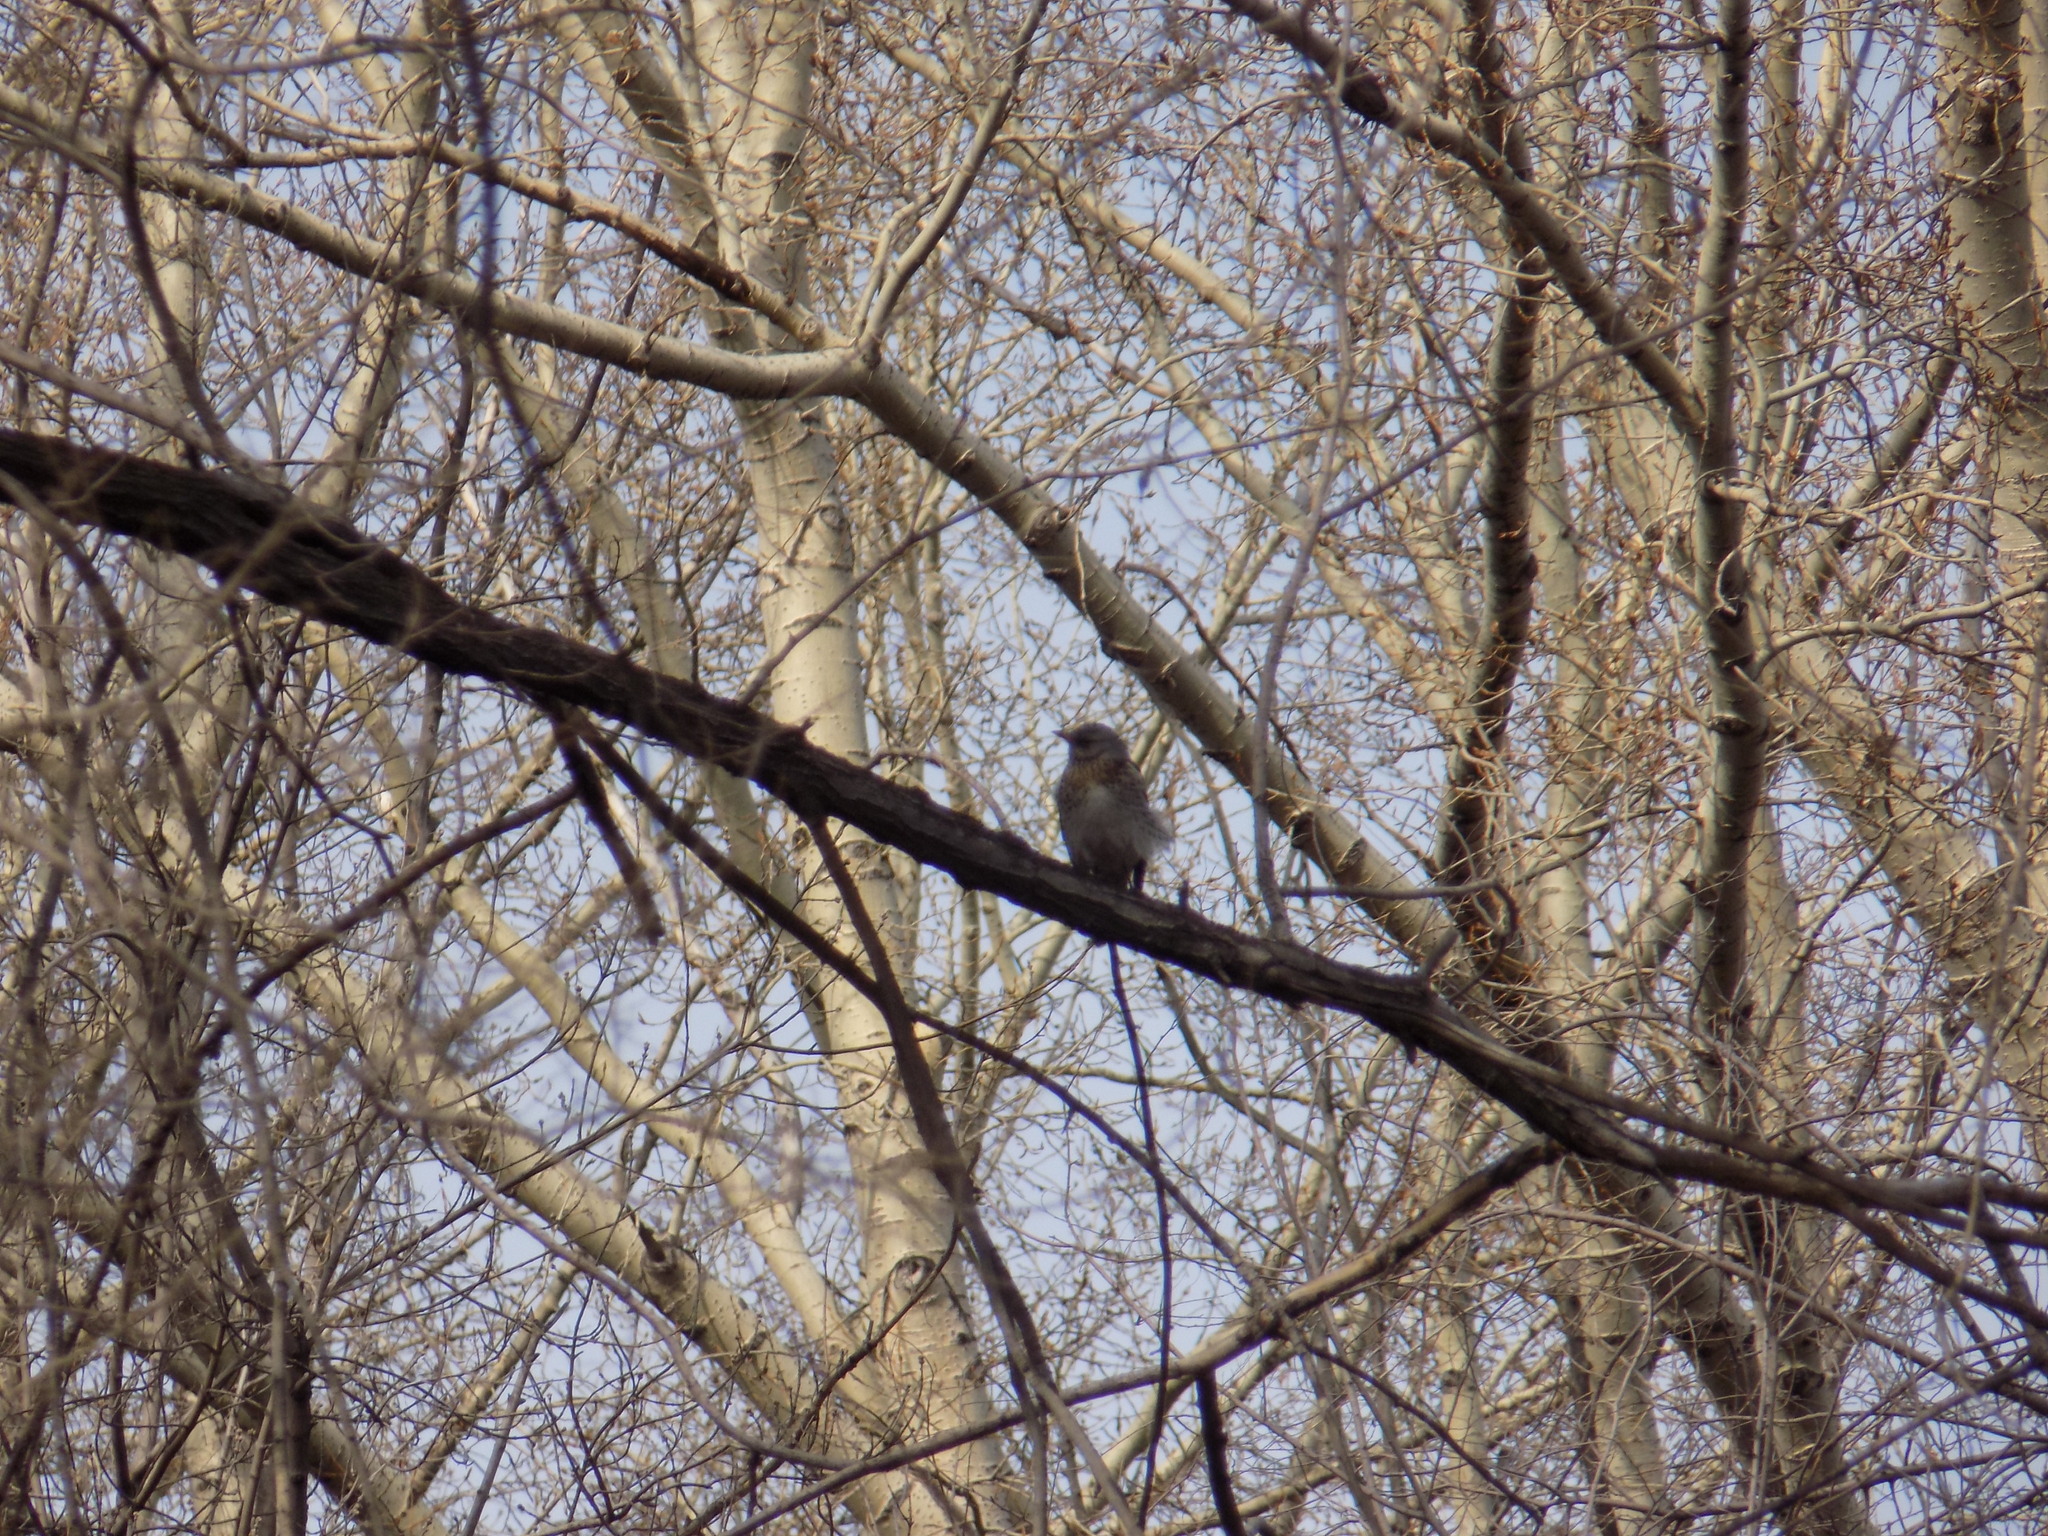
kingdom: Animalia
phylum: Chordata
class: Aves
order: Passeriformes
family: Turdidae
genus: Turdus
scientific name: Turdus pilaris
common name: Fieldfare
